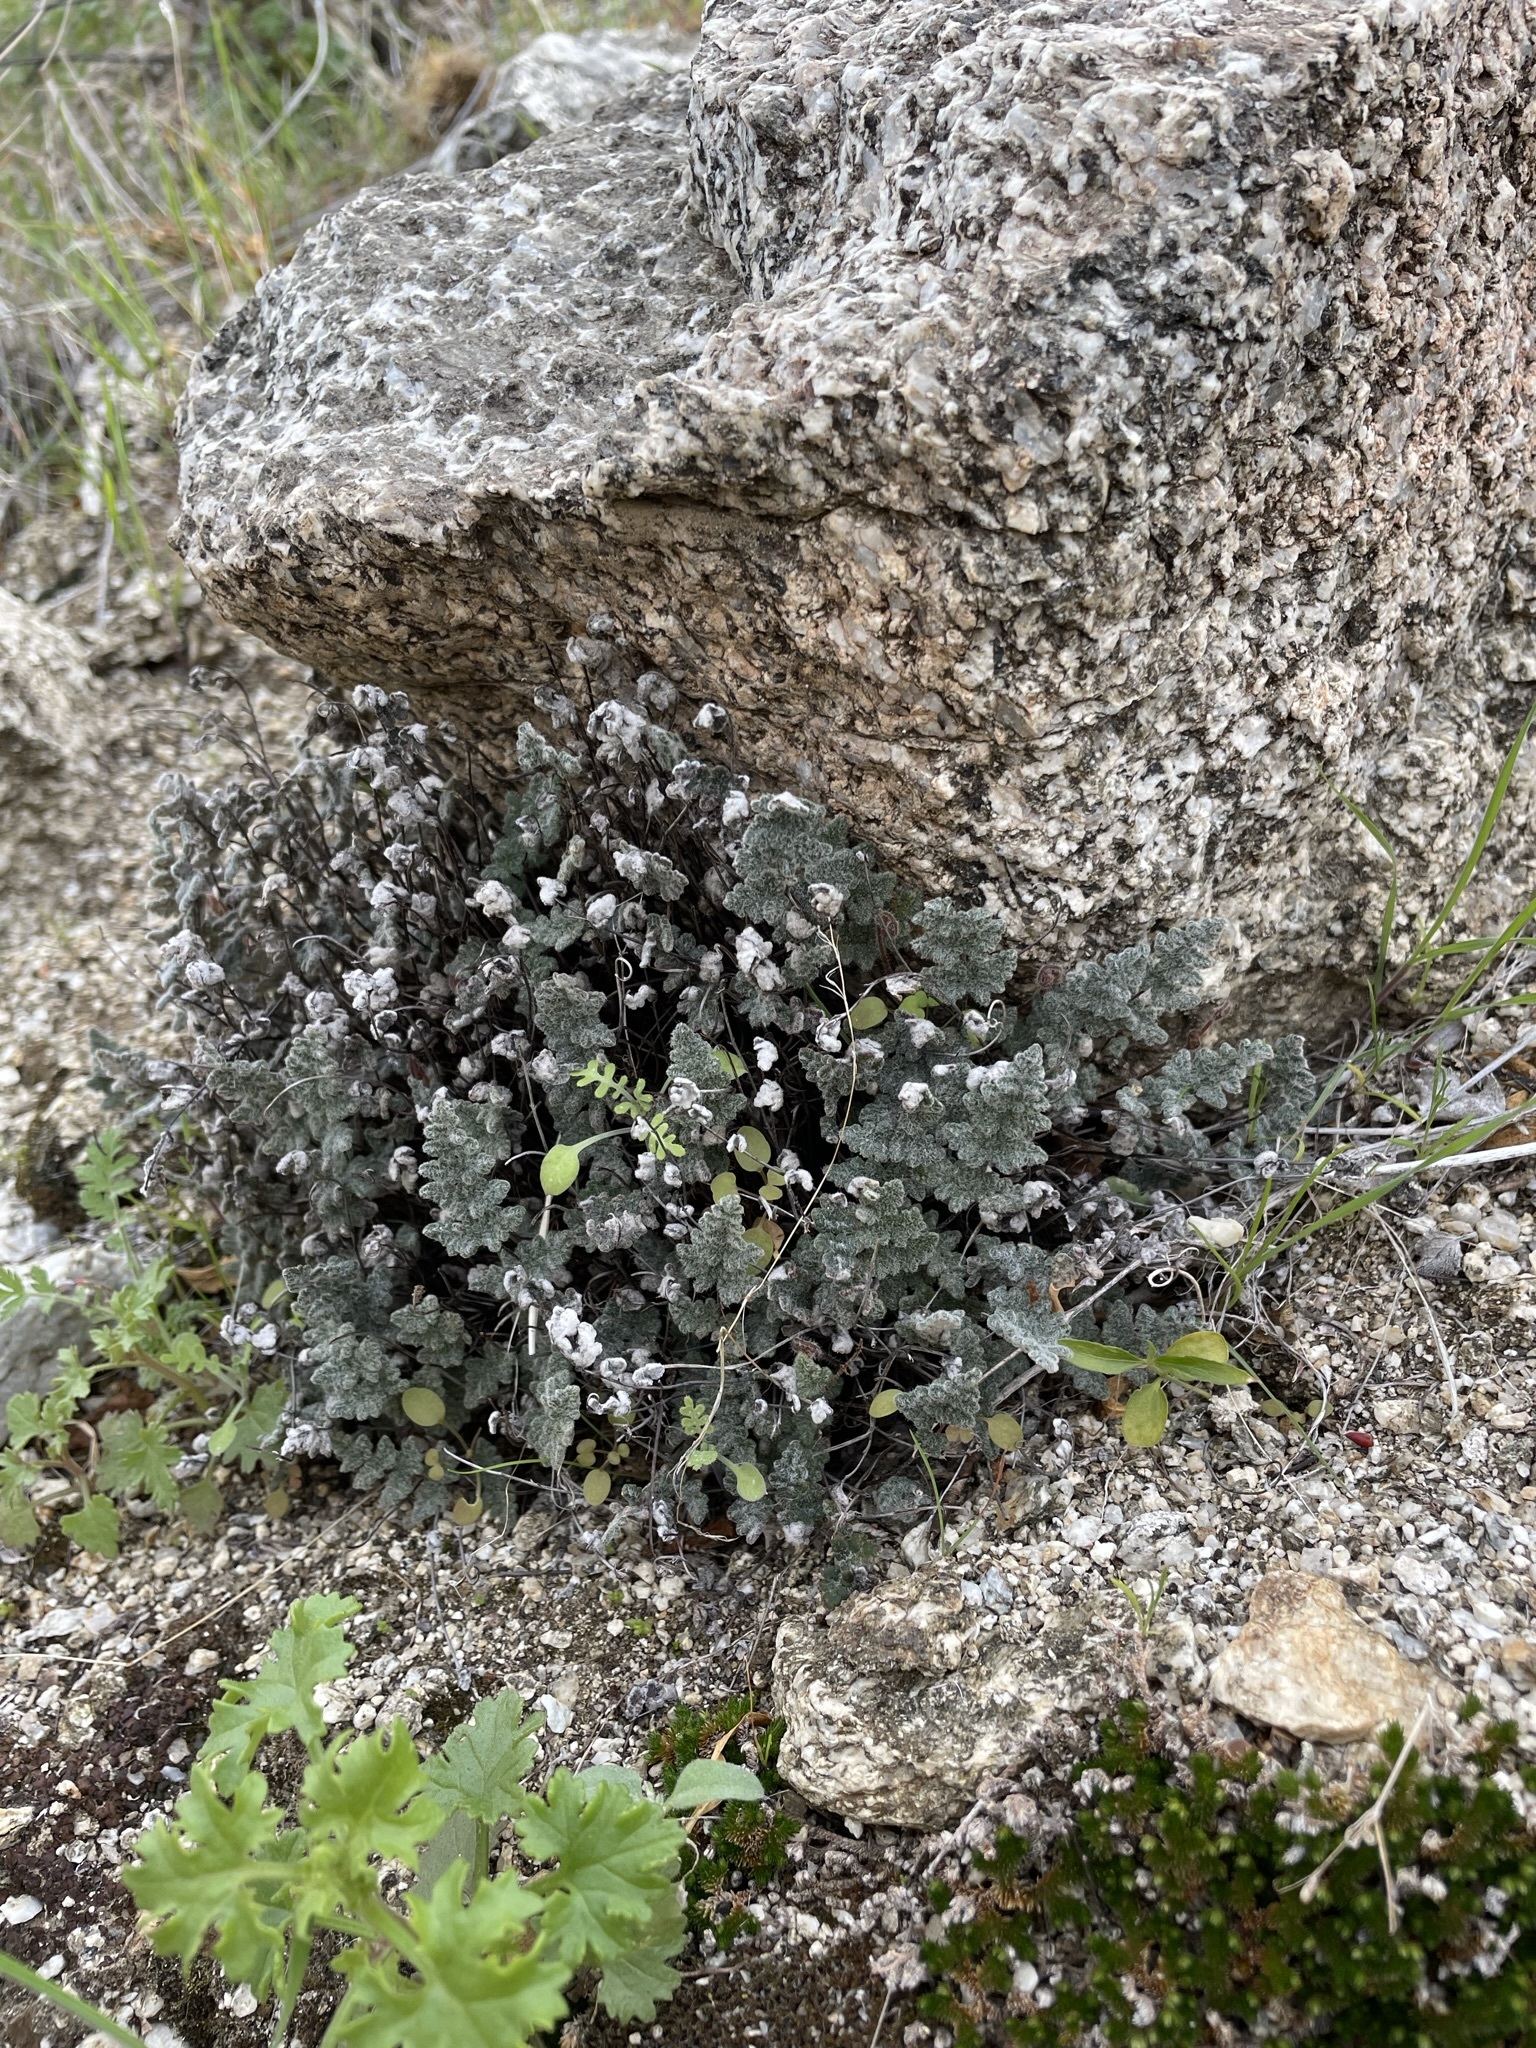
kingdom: Plantae
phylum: Tracheophyta
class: Polypodiopsida
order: Polypodiales
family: Pteridaceae
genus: Myriopteris
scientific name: Myriopteris parryi
